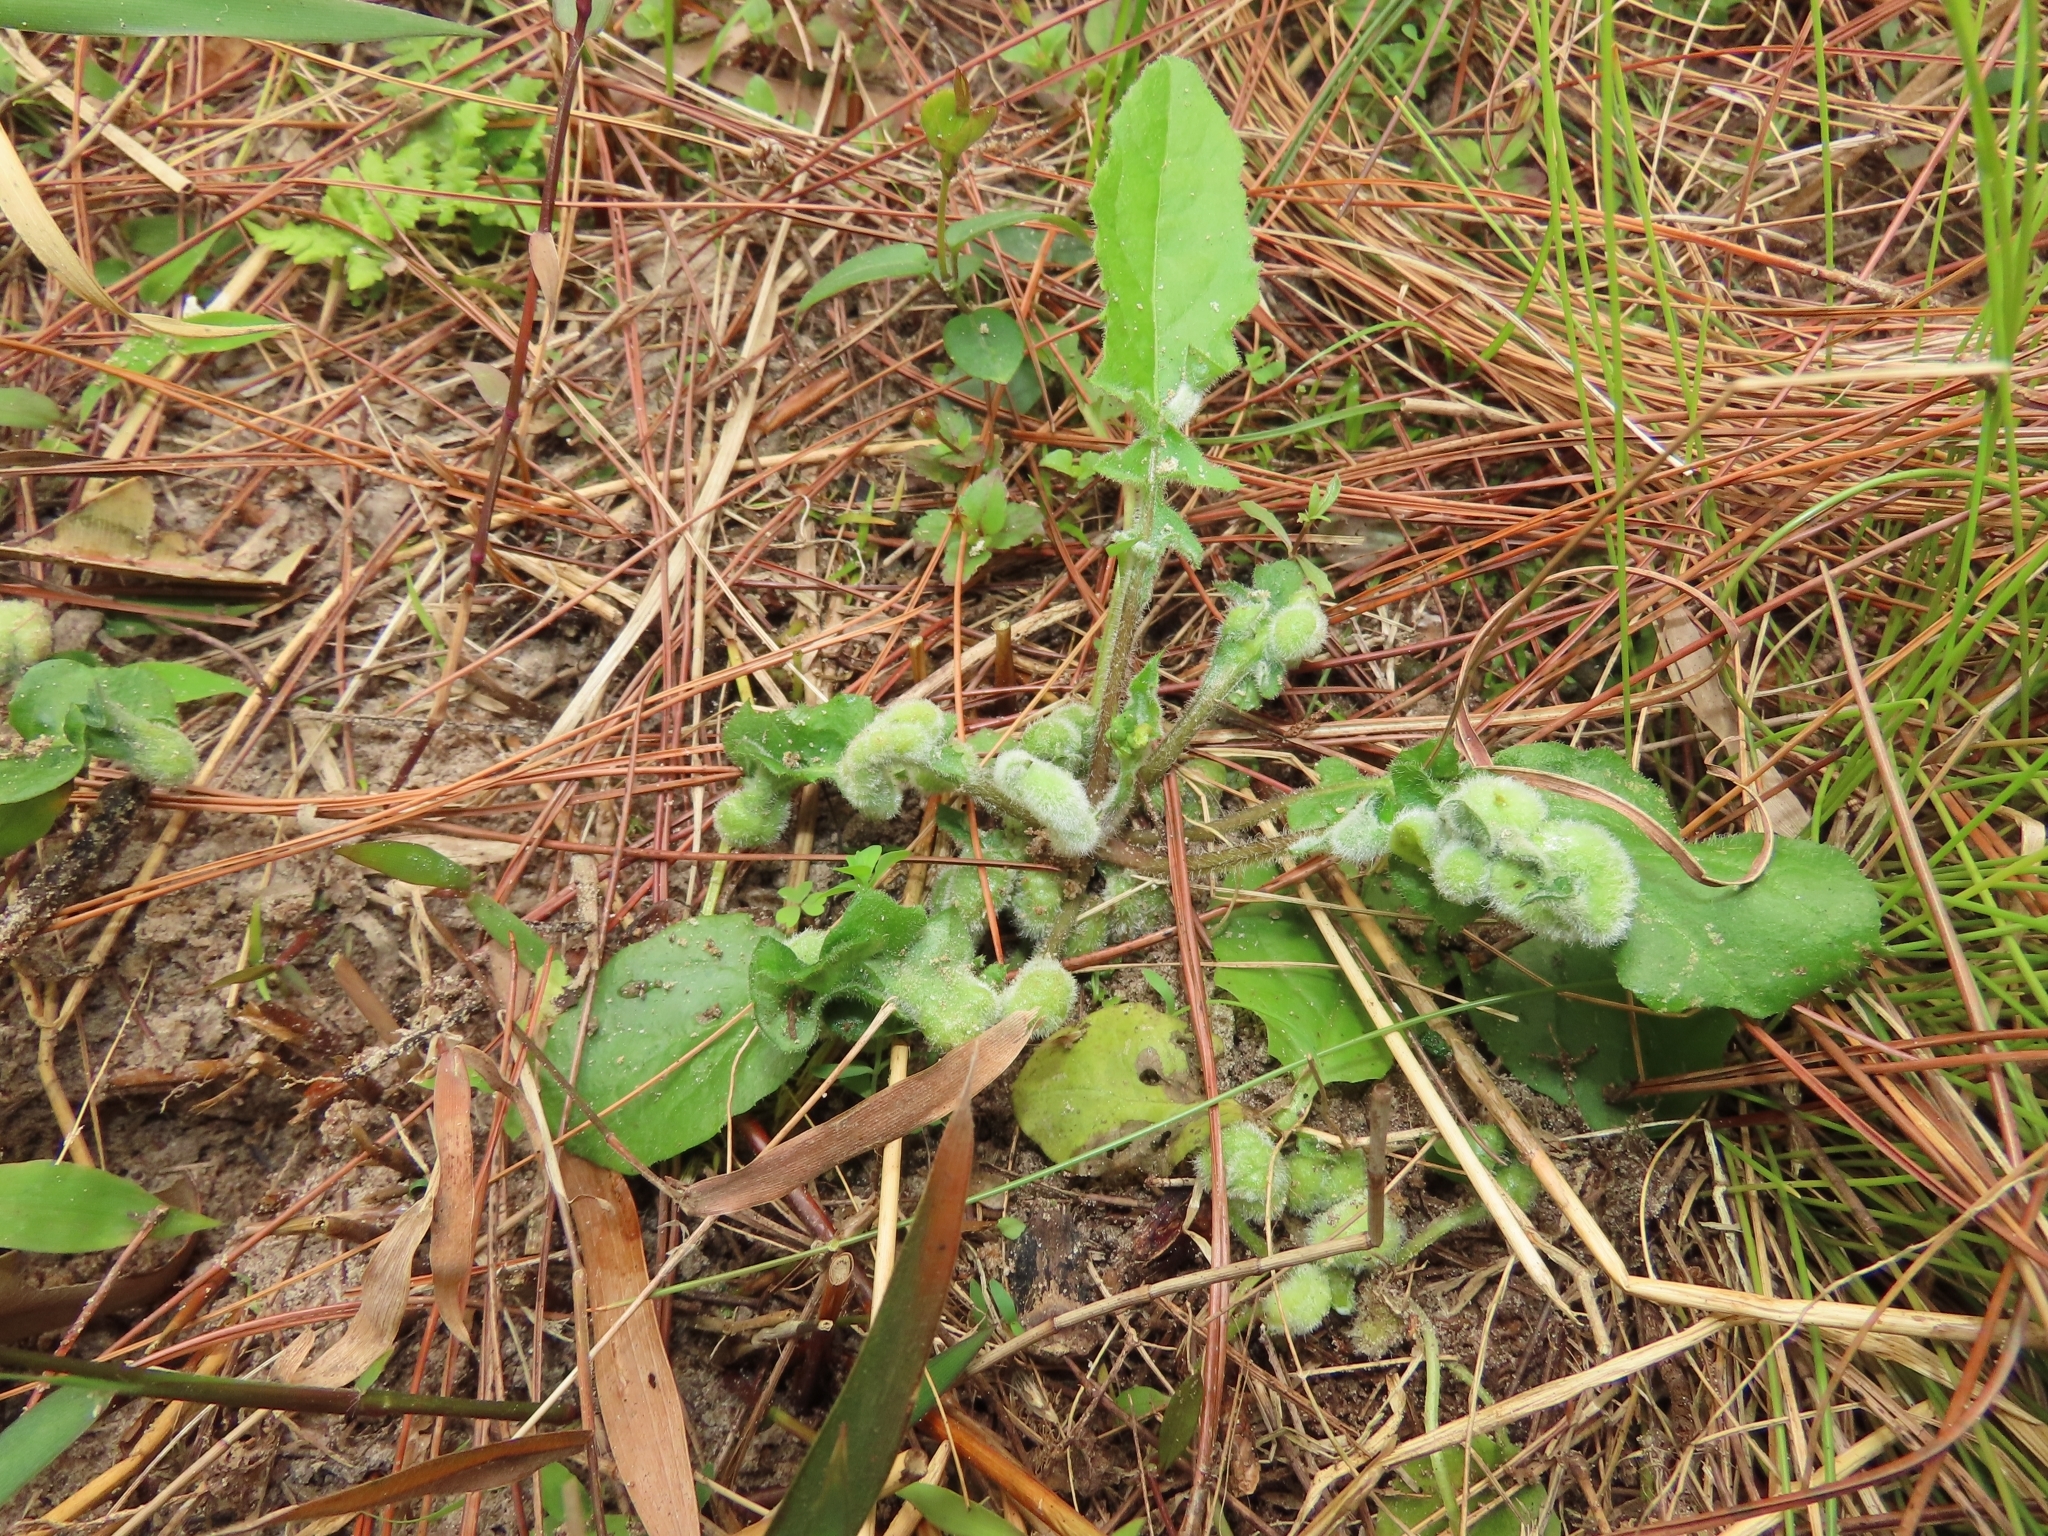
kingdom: Plantae
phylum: Tracheophyta
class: Magnoliopsida
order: Asterales
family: Asteraceae
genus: Youngia
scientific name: Youngia japonica
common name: Oriental false hawksbeard
